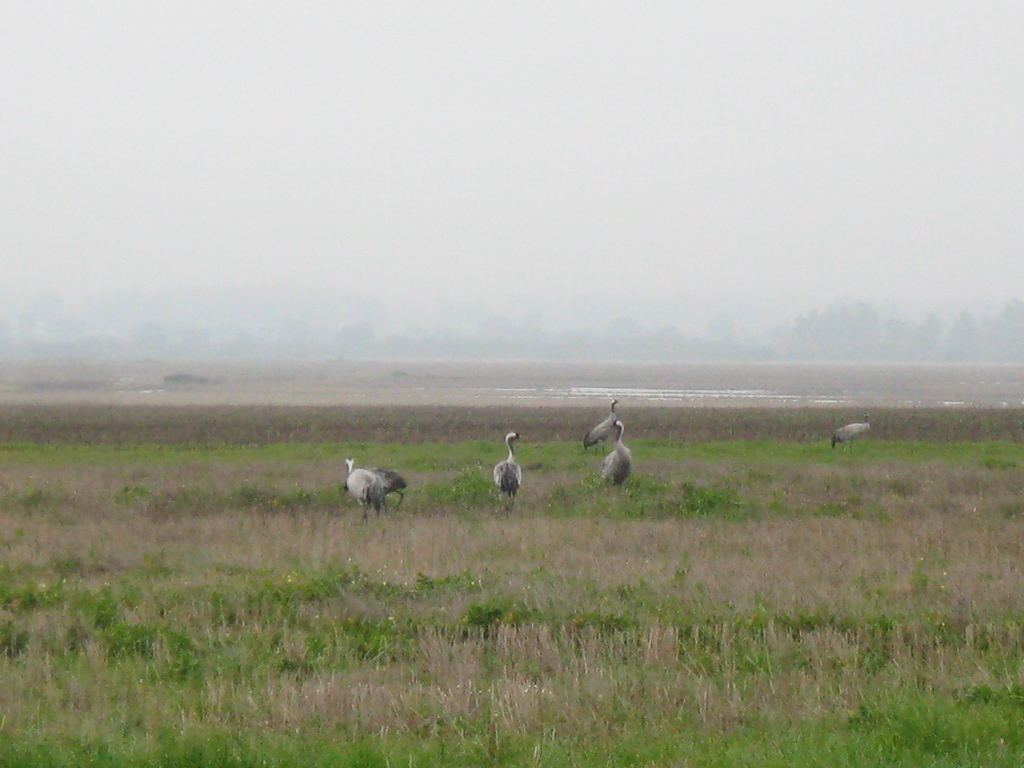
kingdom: Animalia
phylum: Chordata
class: Aves
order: Gruiformes
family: Gruidae
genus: Grus
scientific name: Grus grus
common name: Common crane
